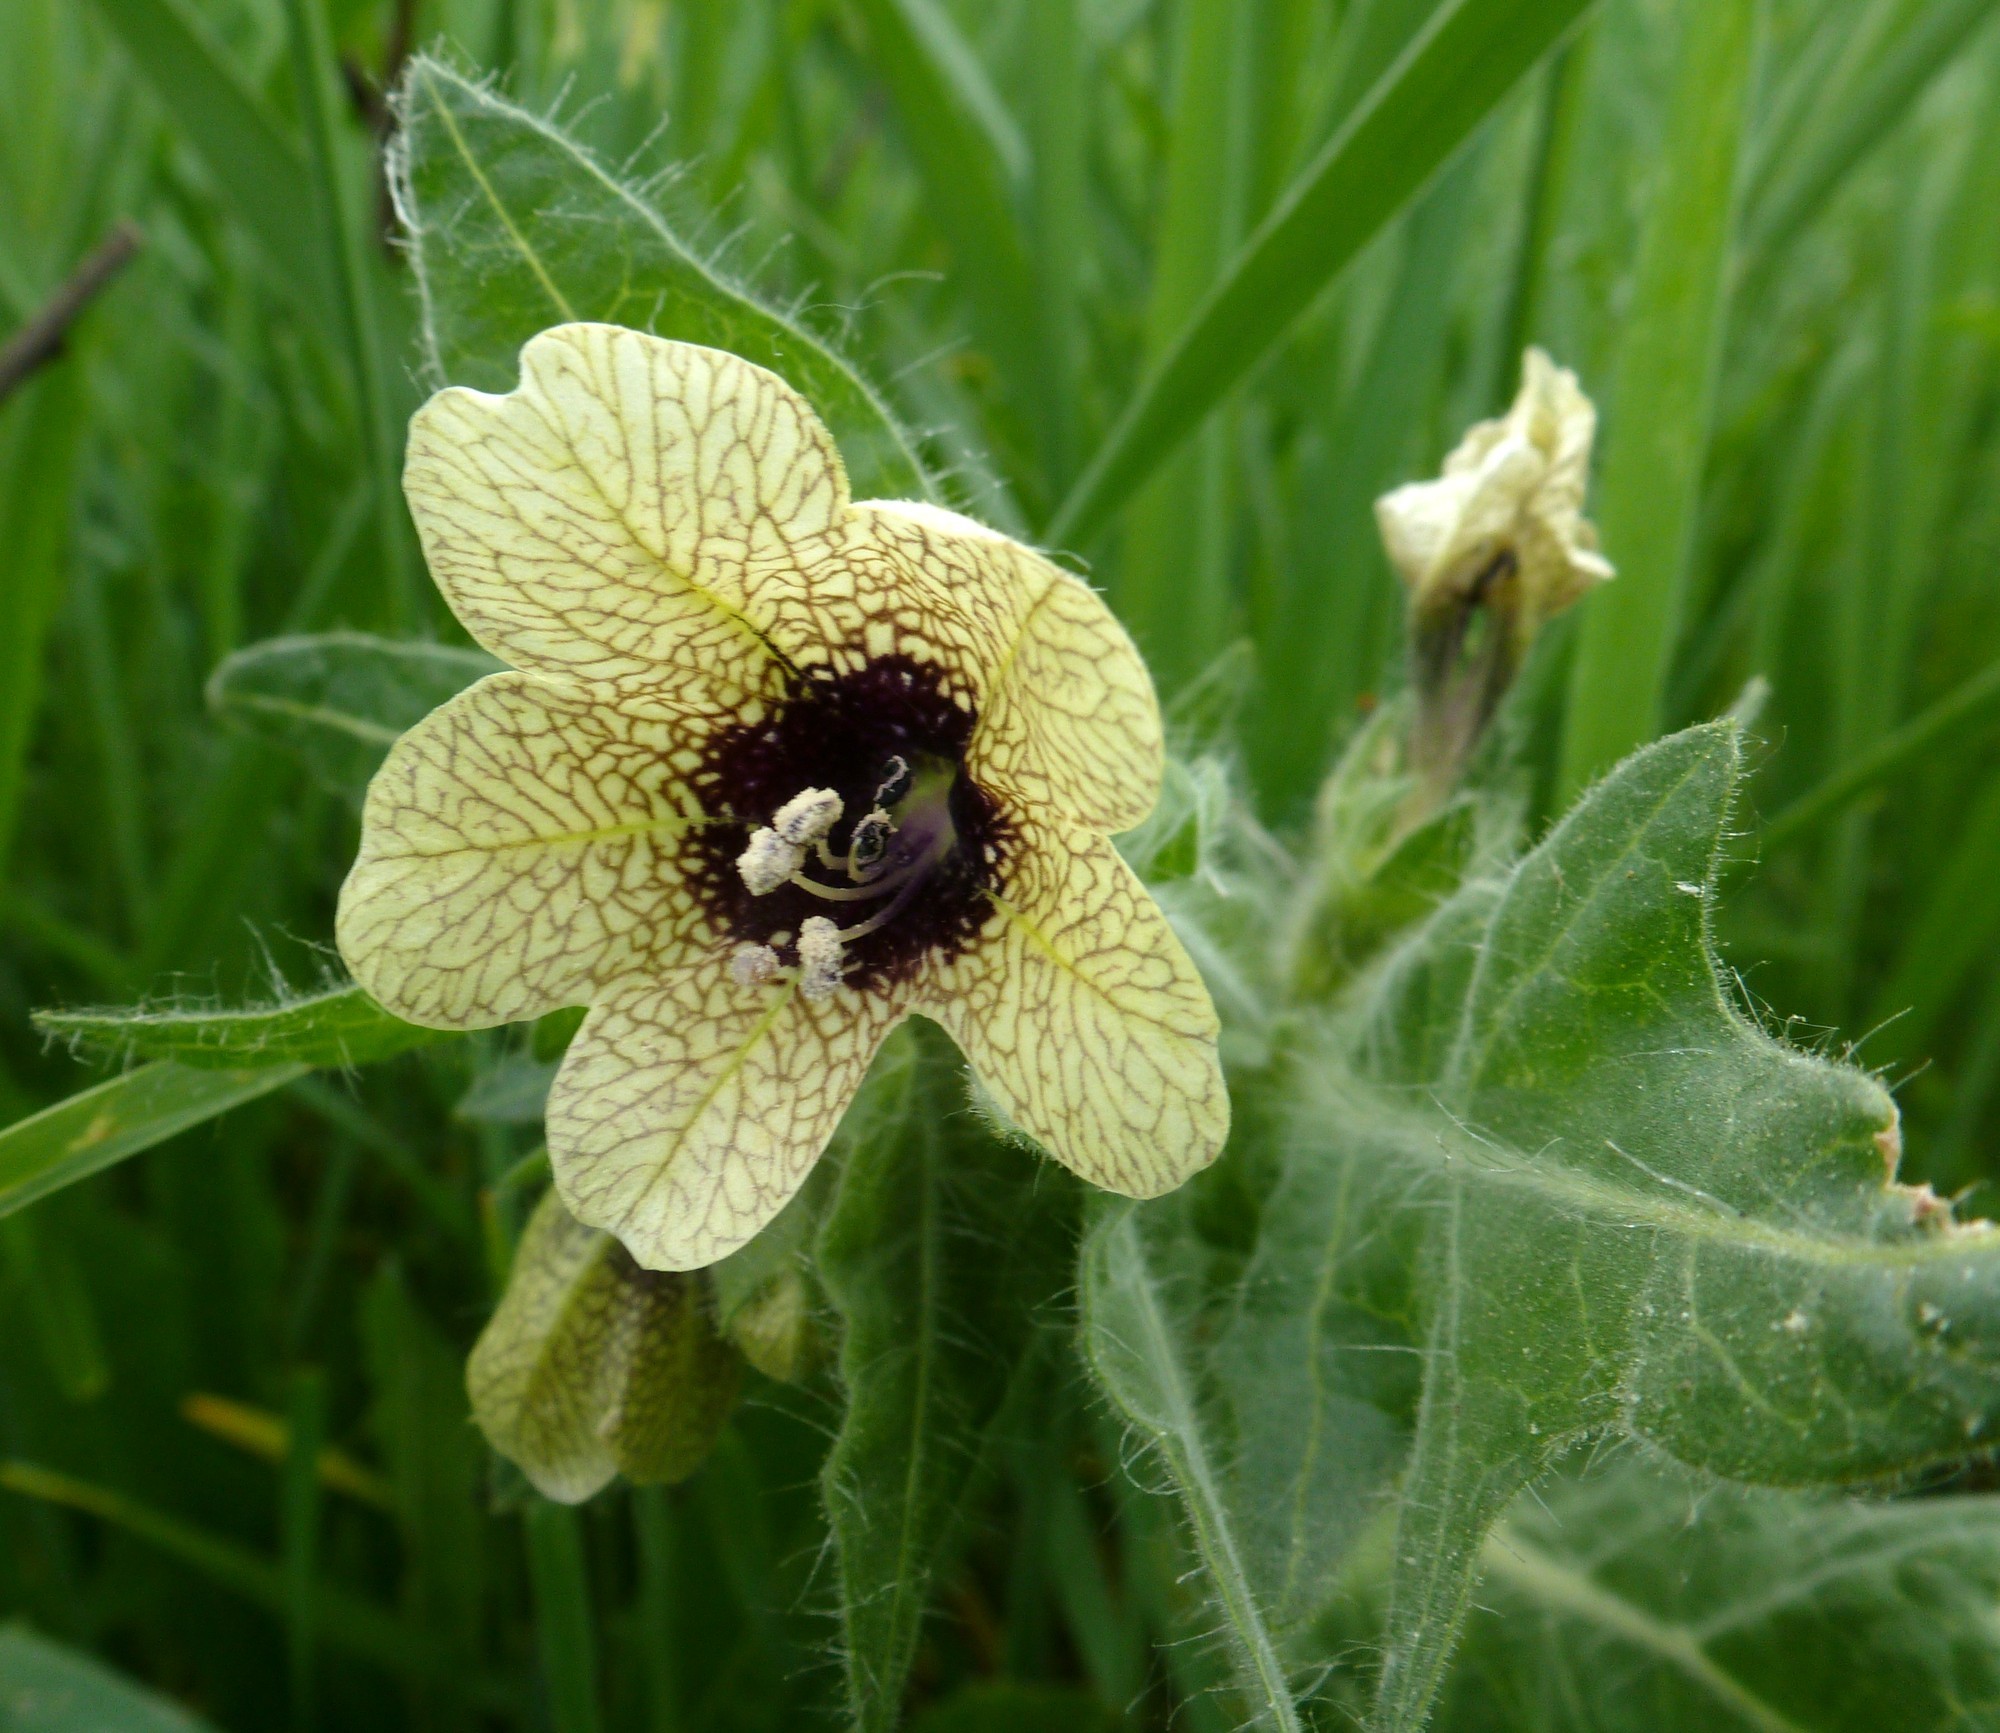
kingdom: Plantae
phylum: Tracheophyta
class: Magnoliopsida
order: Solanales
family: Solanaceae
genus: Hyoscyamus
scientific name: Hyoscyamus niger
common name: Henbane
